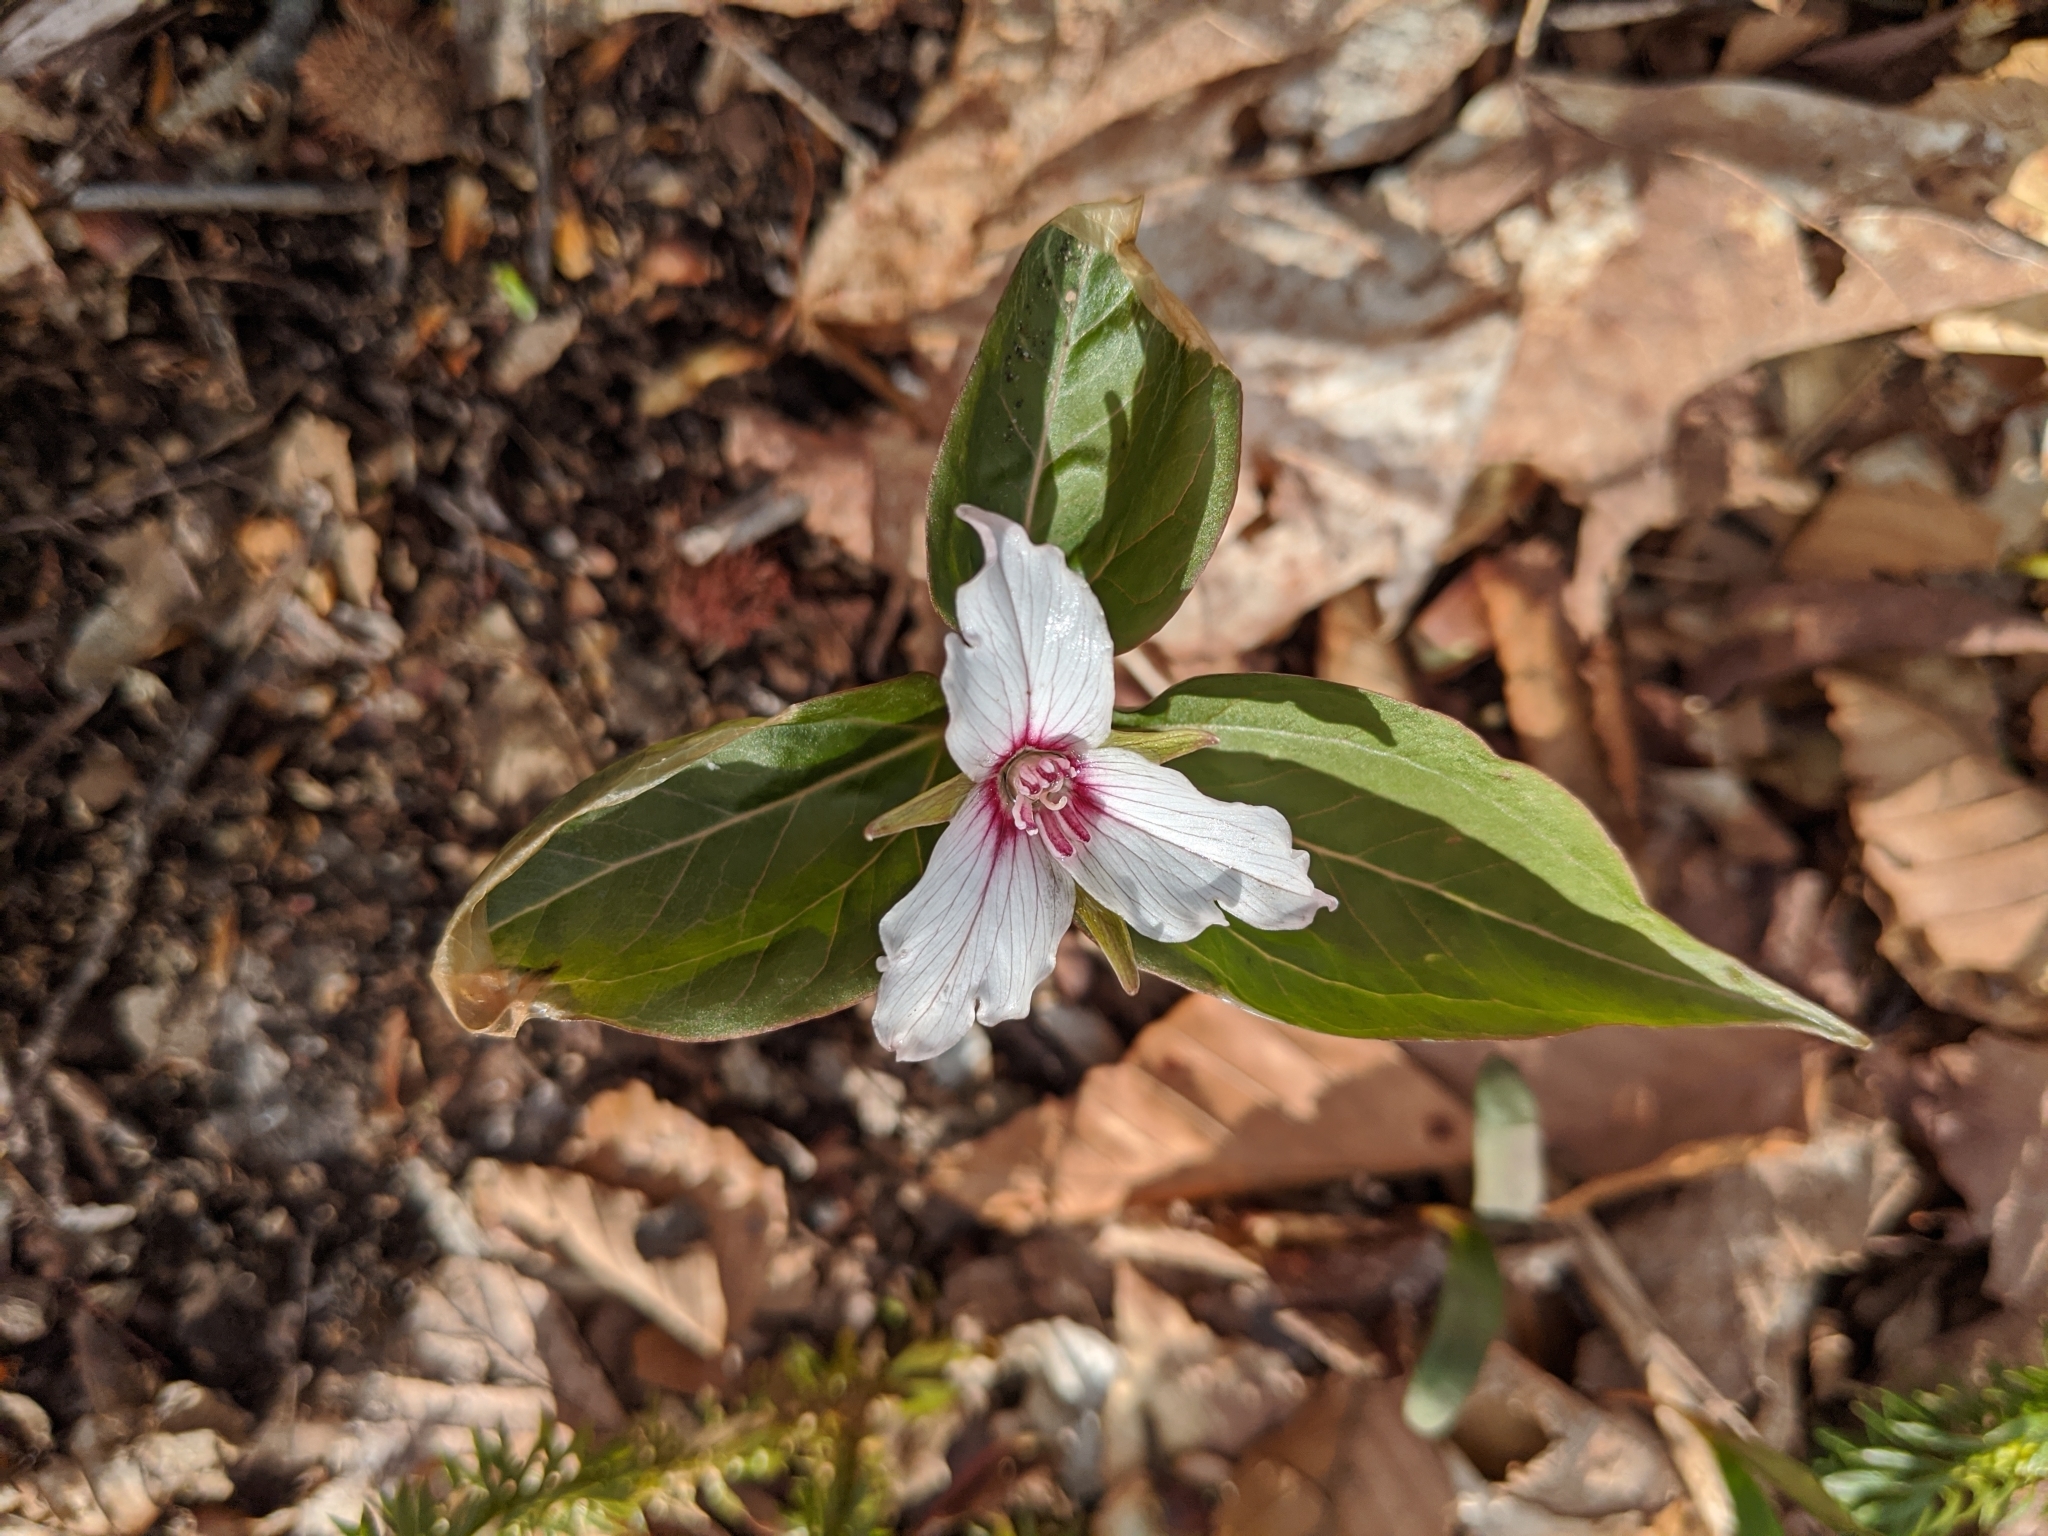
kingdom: Plantae
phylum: Tracheophyta
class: Liliopsida
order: Liliales
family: Melanthiaceae
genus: Trillium
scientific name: Trillium undulatum
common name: Paint trillium
